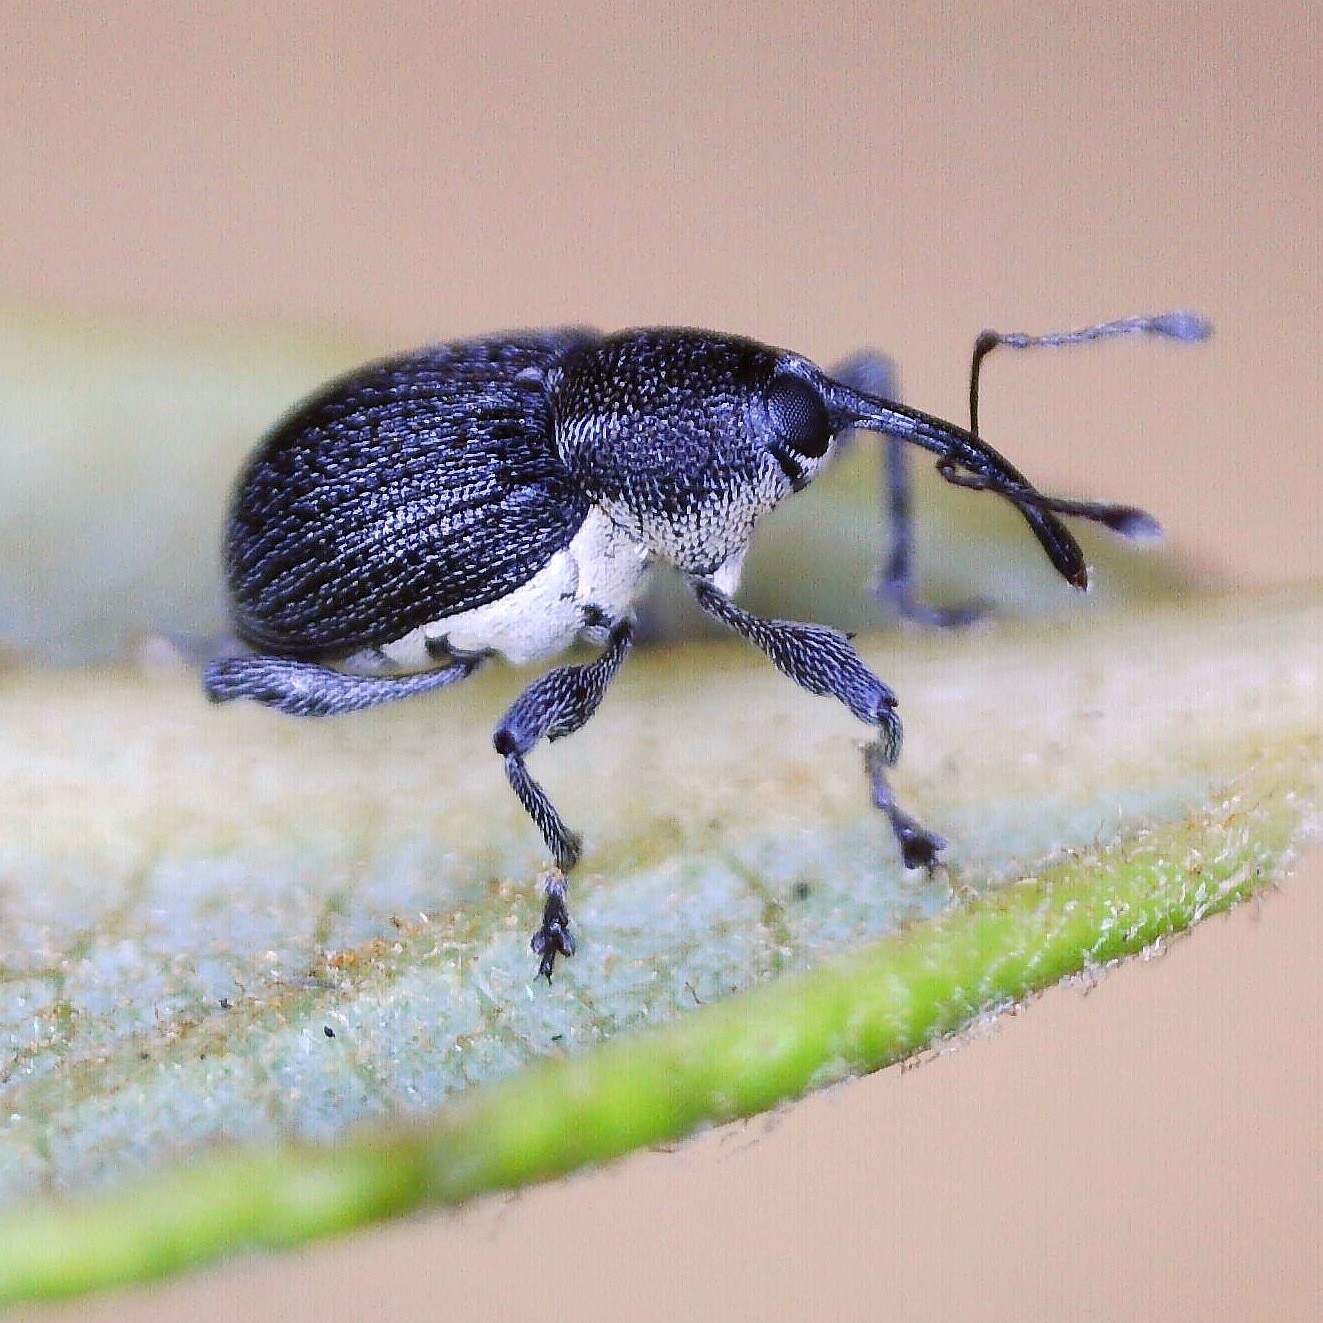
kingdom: Animalia
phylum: Arthropoda
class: Insecta
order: Coleoptera
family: Curculionidae
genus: Archarius
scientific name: Archarius salicivorus
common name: Weevil
